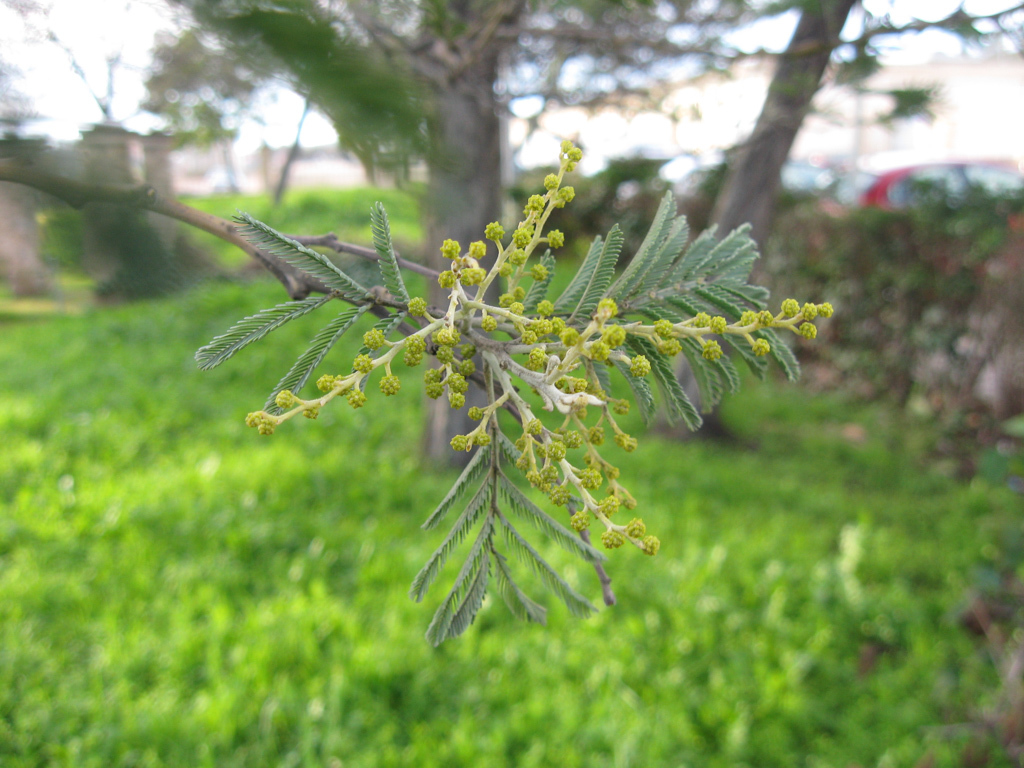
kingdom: Plantae
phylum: Tracheophyta
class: Magnoliopsida
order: Fabales
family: Fabaceae
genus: Acacia
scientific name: Acacia dealbata
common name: Silver wattle
